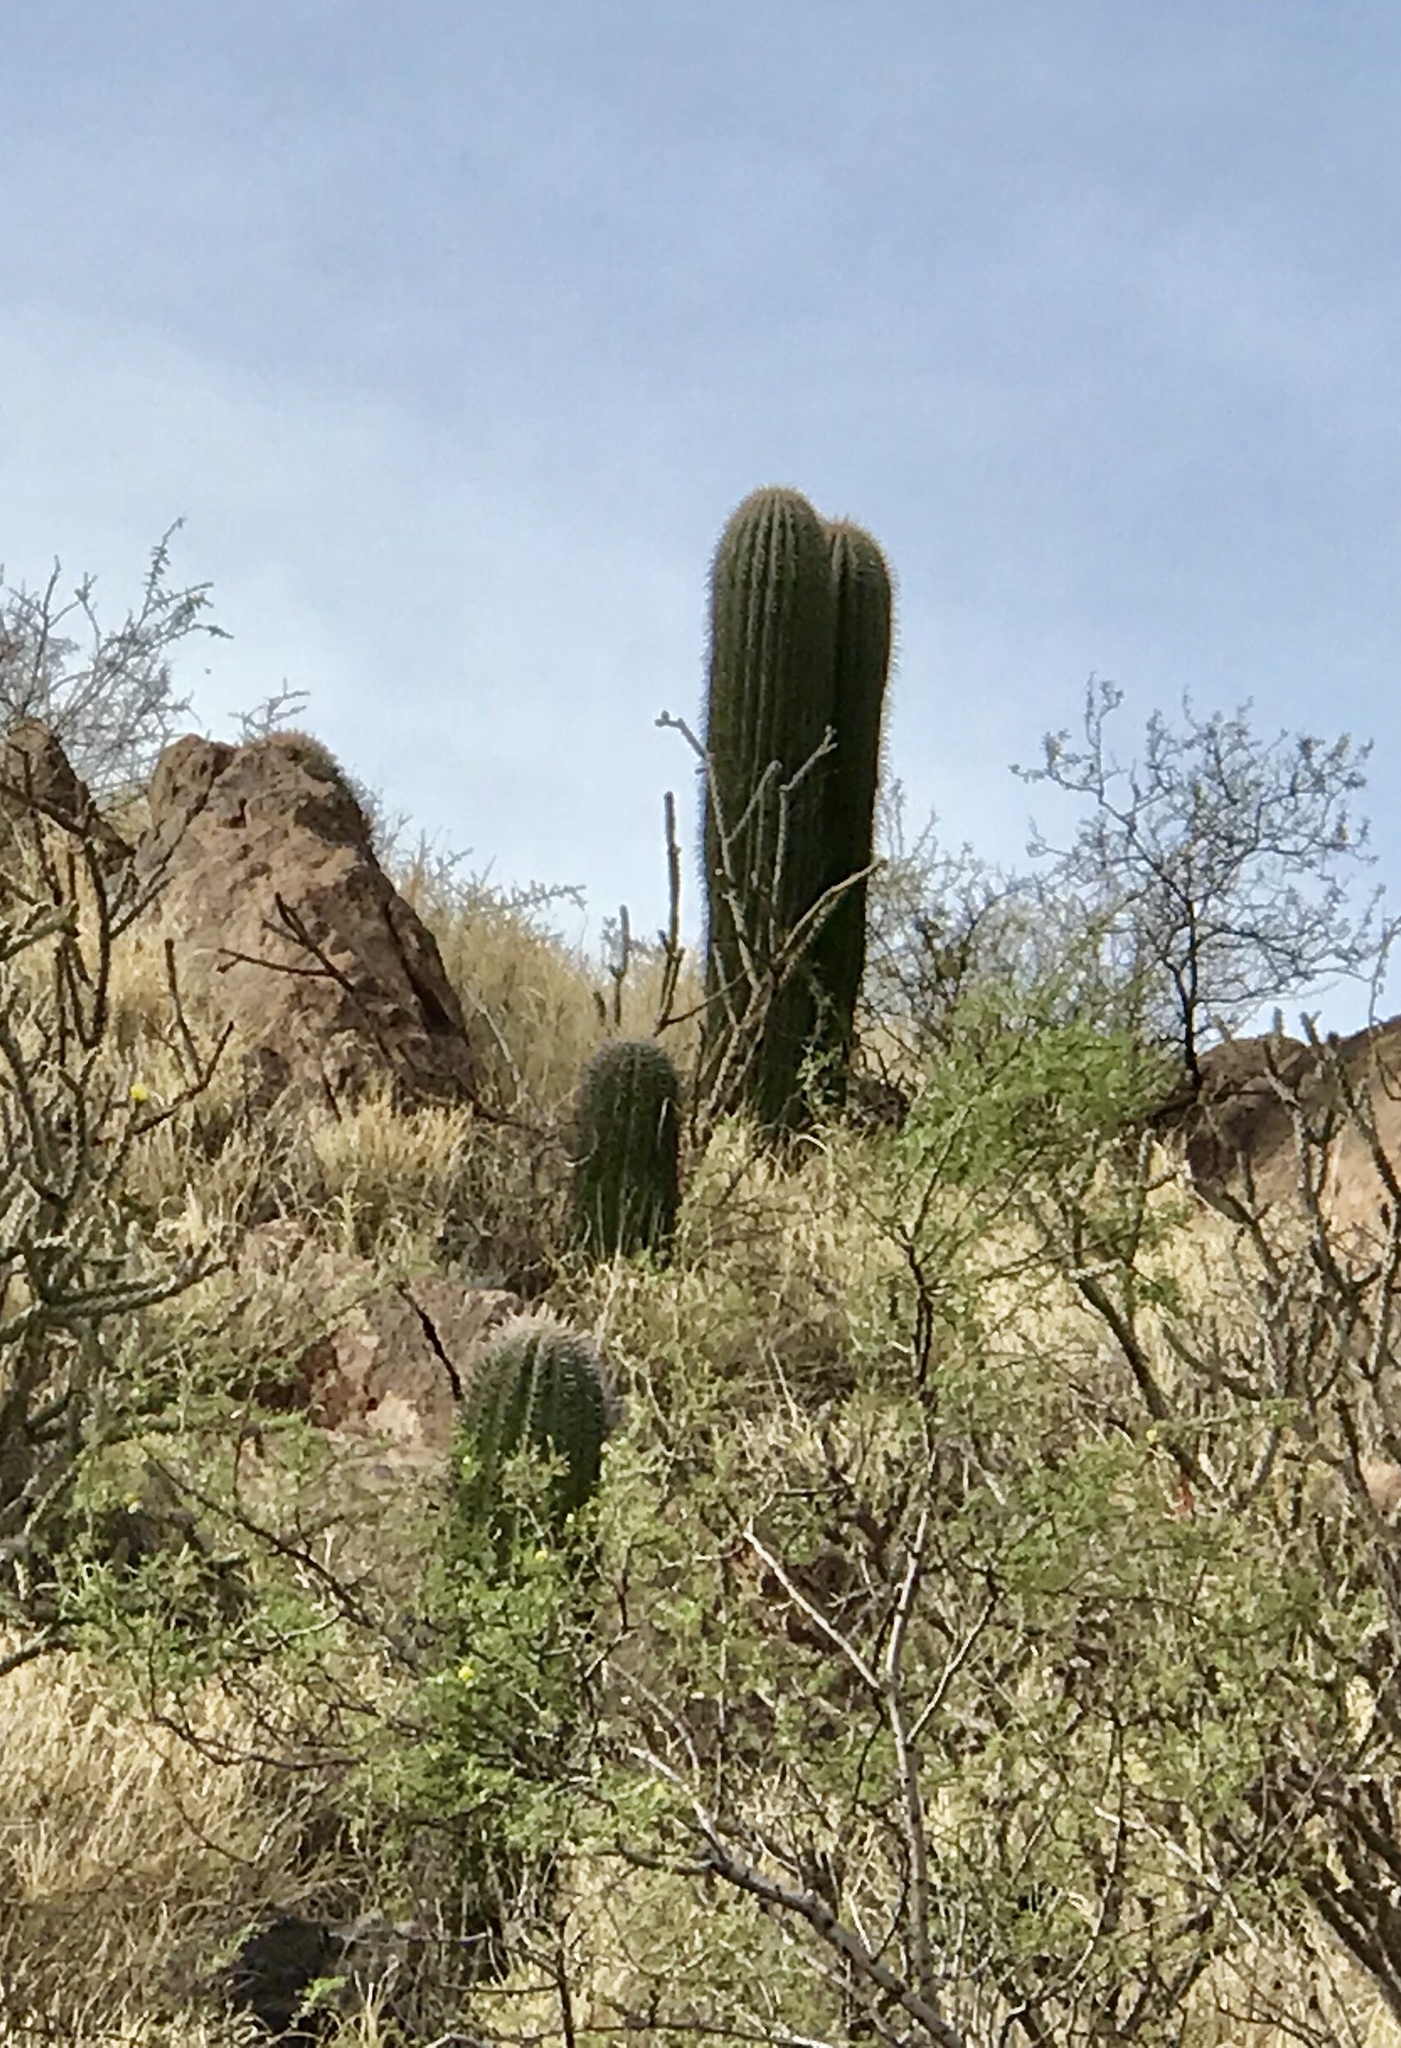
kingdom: Plantae
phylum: Tracheophyta
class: Magnoliopsida
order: Caryophyllales
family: Cactaceae
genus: Carnegiea
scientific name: Carnegiea gigantea
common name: Saguaro
